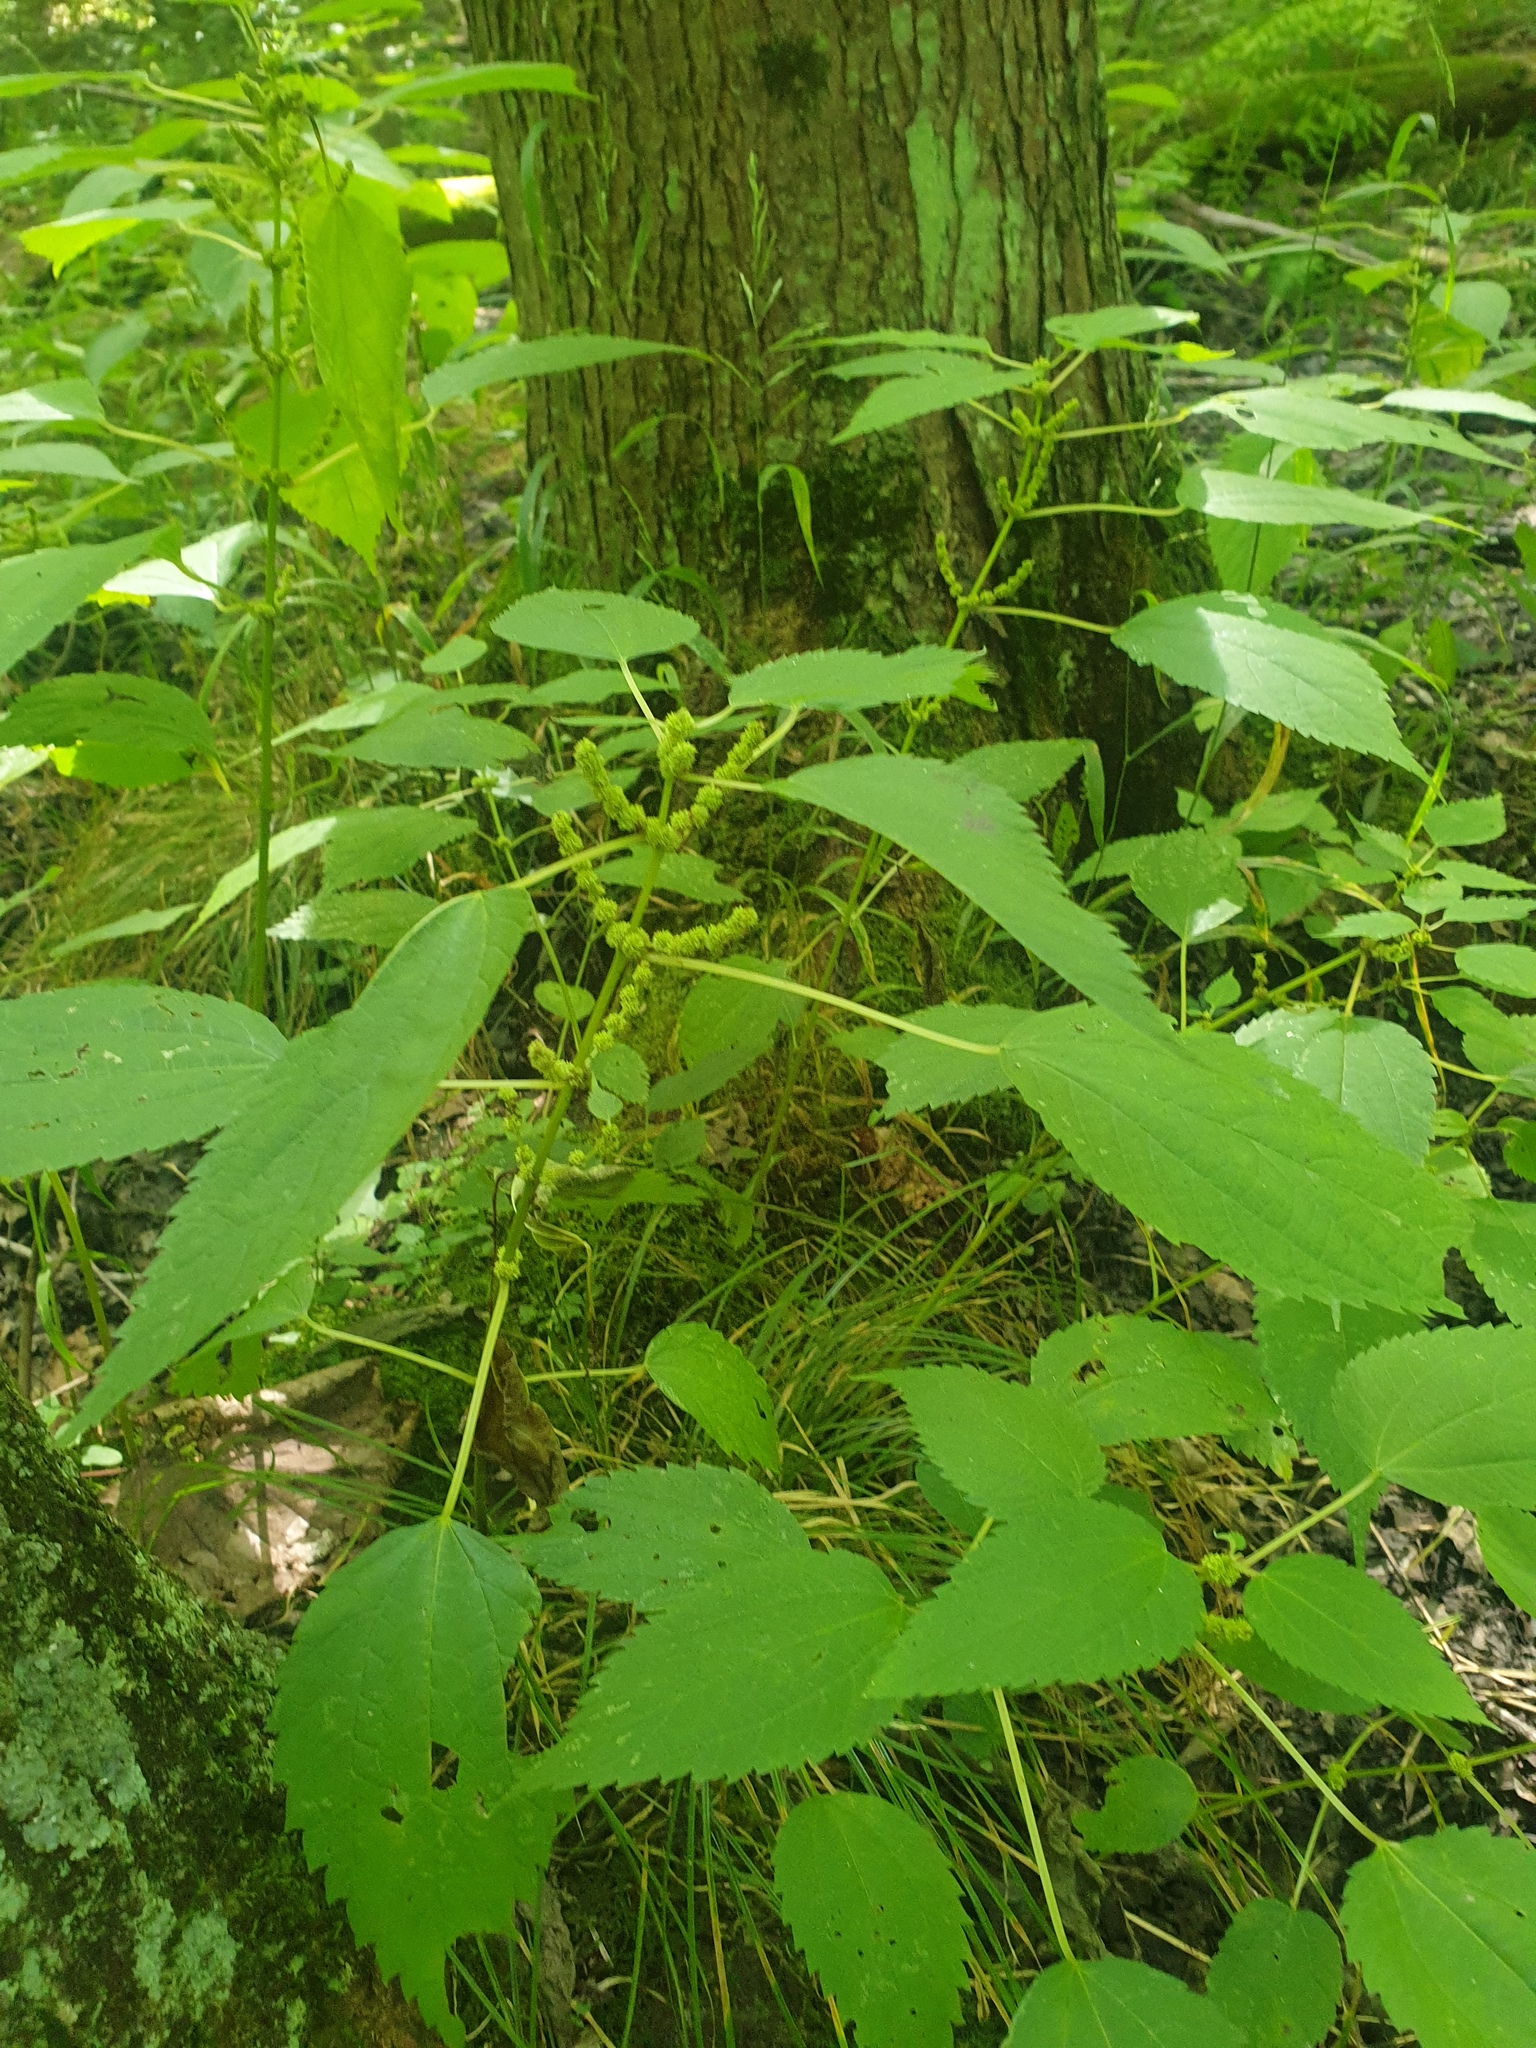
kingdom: Plantae
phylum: Tracheophyta
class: Magnoliopsida
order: Rosales
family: Urticaceae
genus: Boehmeria
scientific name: Boehmeria cylindrica
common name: Bog-hemp
